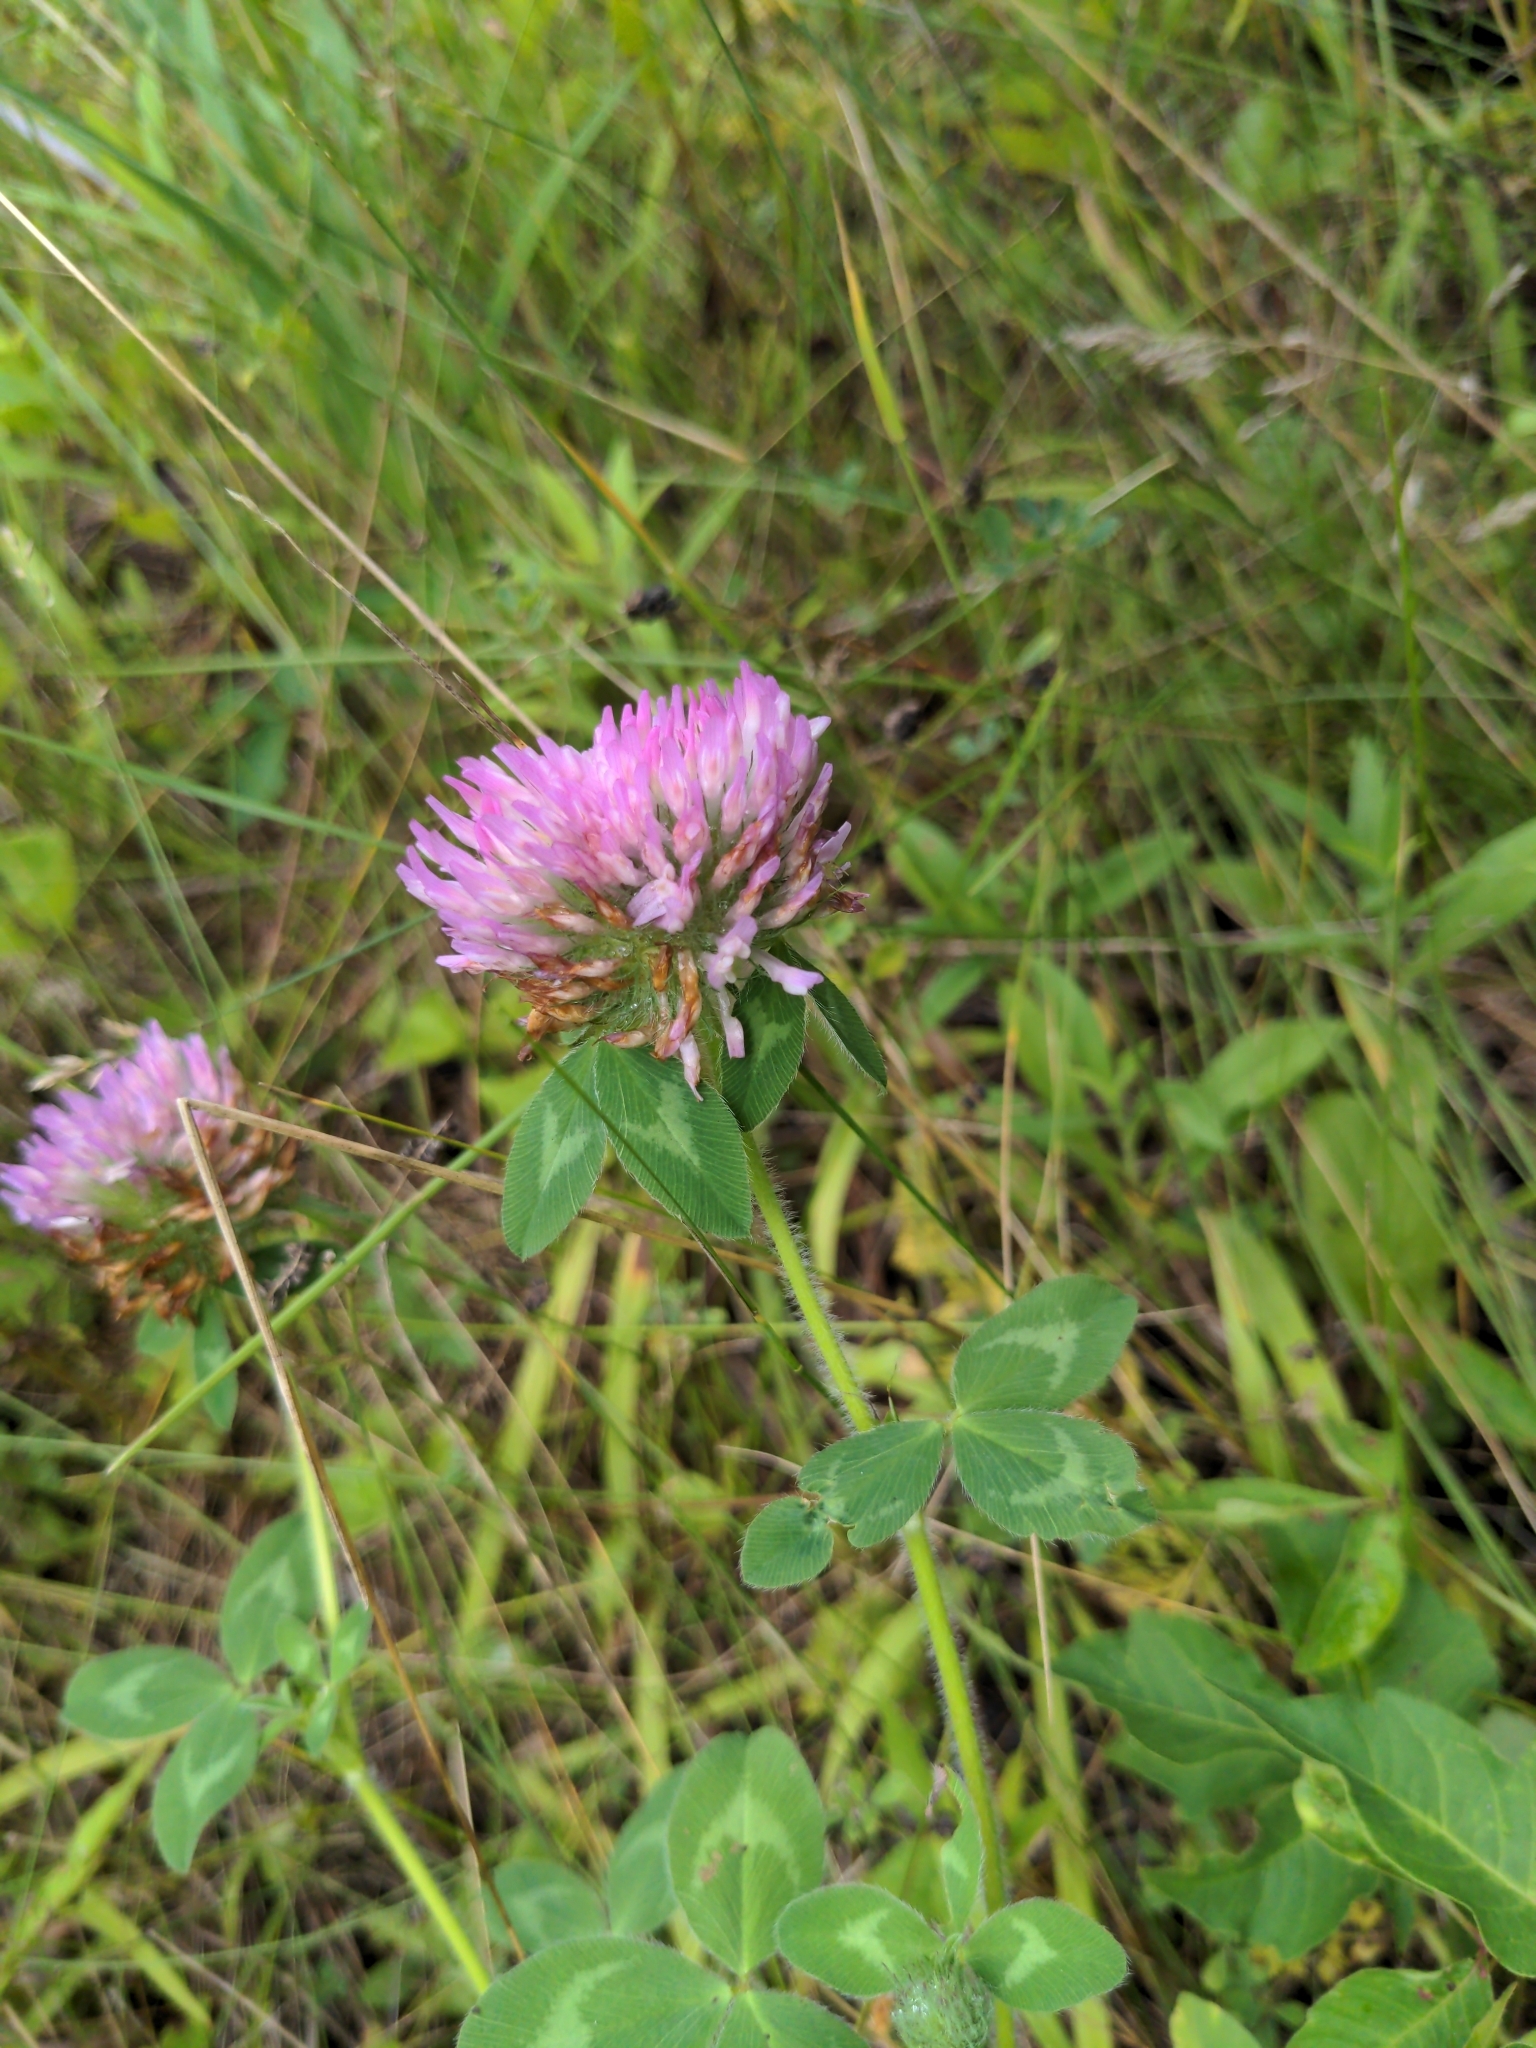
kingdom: Plantae
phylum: Tracheophyta
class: Magnoliopsida
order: Fabales
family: Fabaceae
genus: Trifolium
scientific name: Trifolium pratense
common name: Red clover
